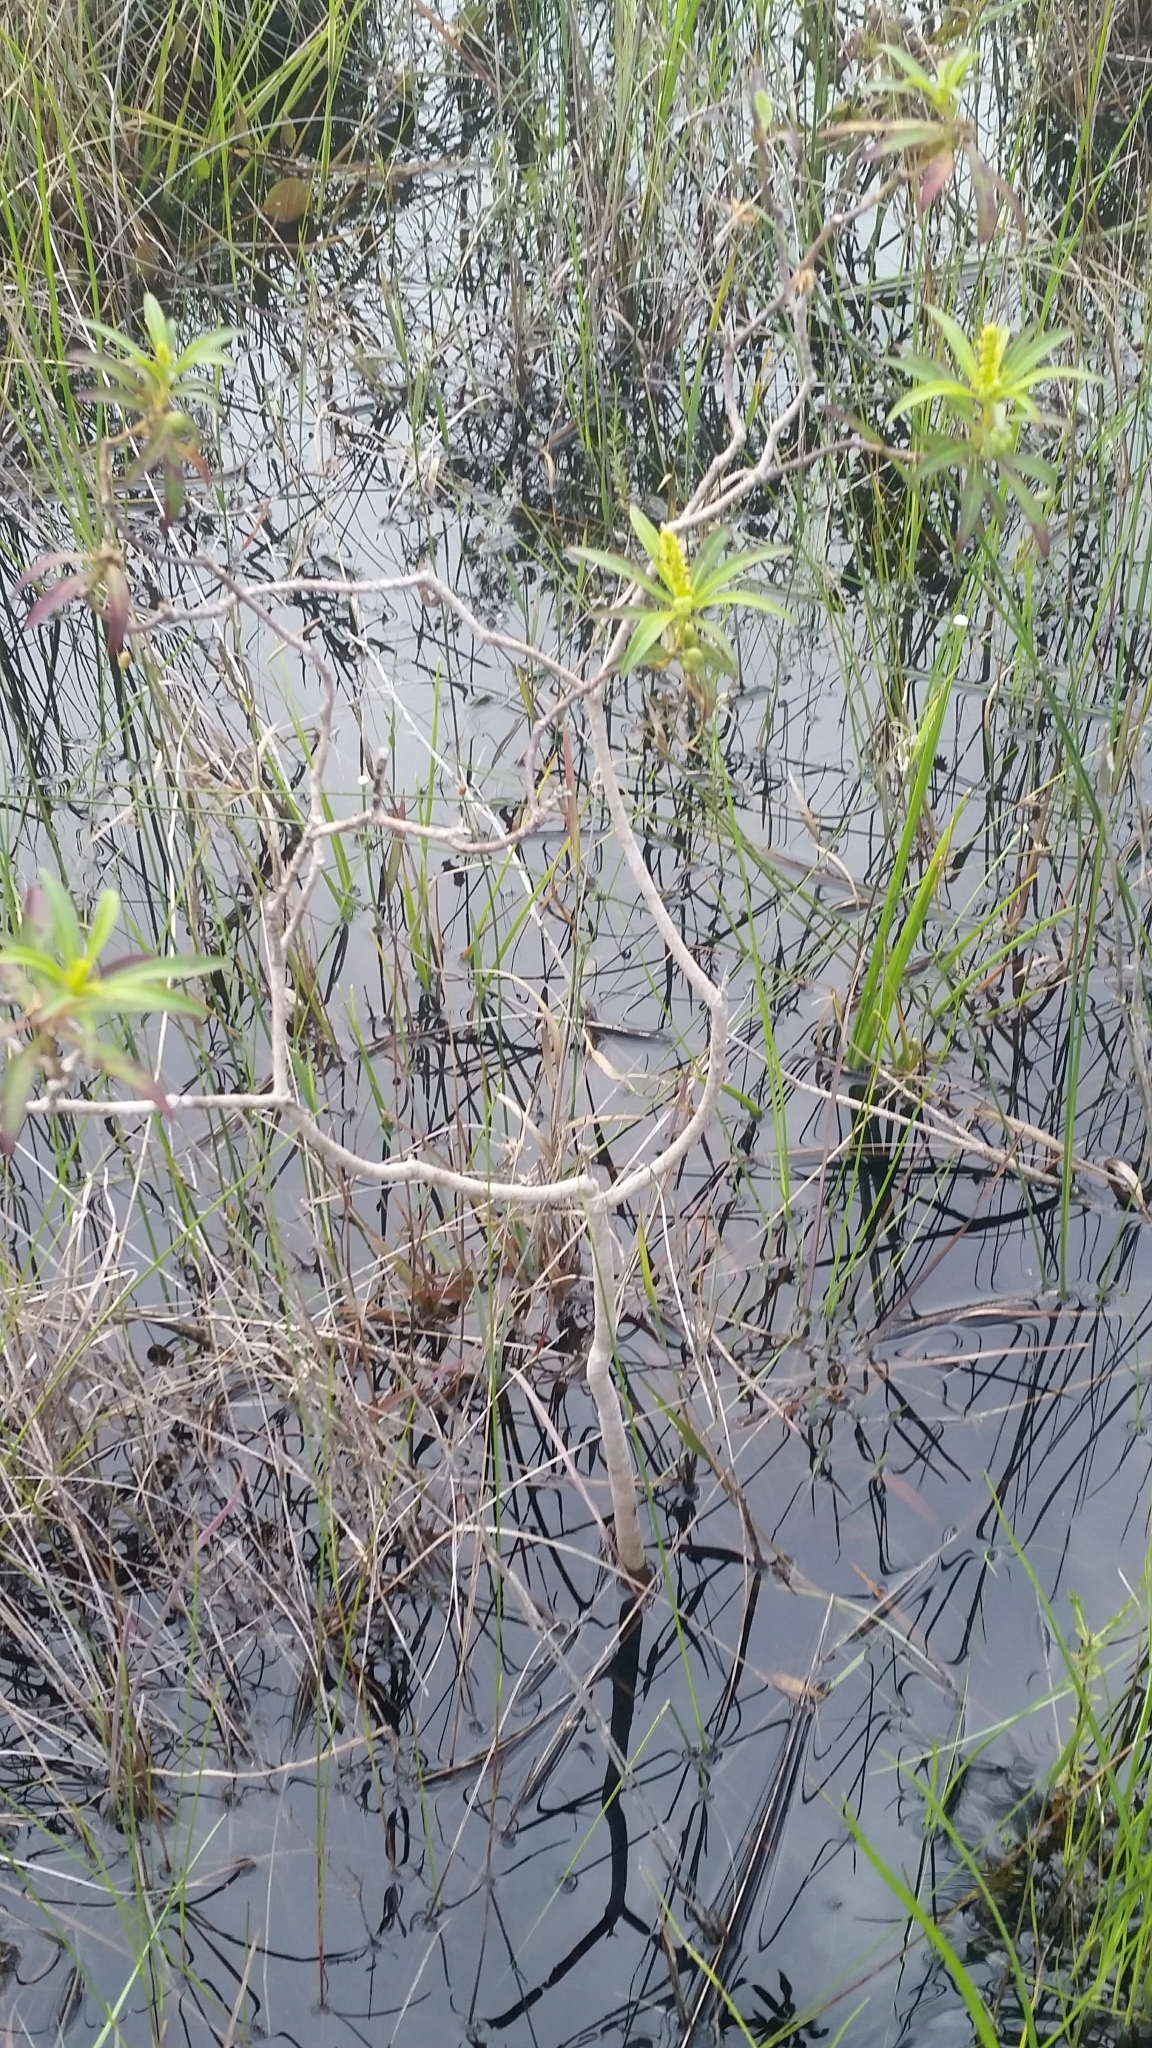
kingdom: Plantae
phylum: Tracheophyta
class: Magnoliopsida
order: Malpighiales
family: Euphorbiaceae
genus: Stillingia
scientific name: Stillingia aquatica
